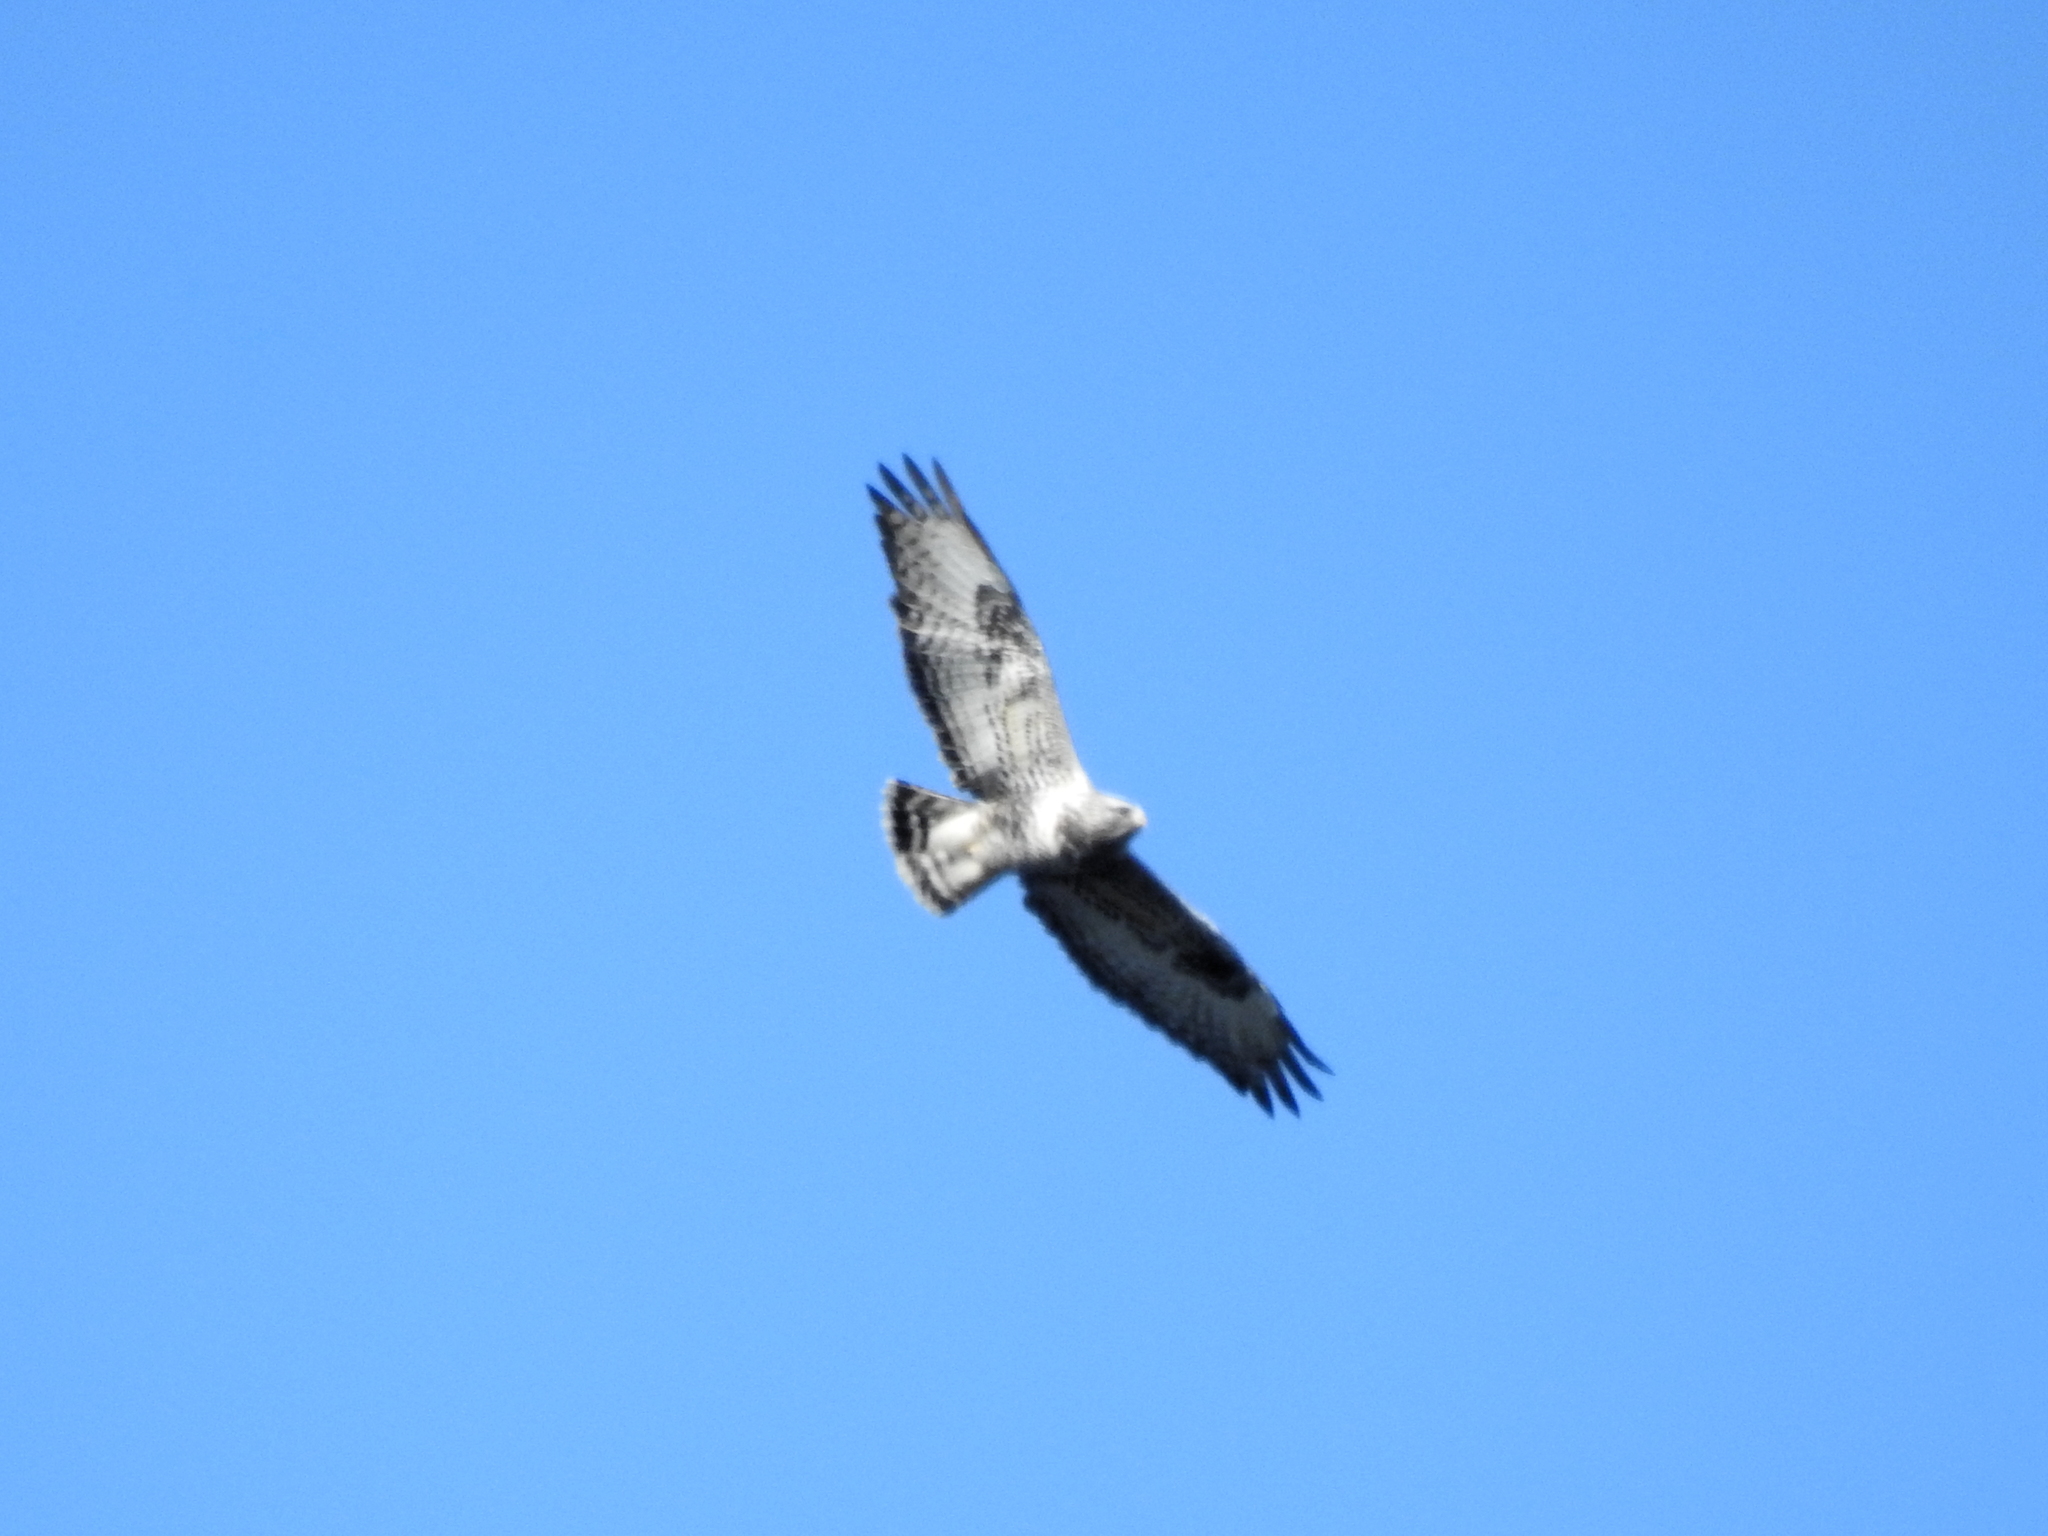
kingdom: Animalia
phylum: Chordata
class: Aves
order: Accipitriformes
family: Accipitridae
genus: Buteo
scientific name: Buteo lagopus
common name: Rough-legged buzzard
